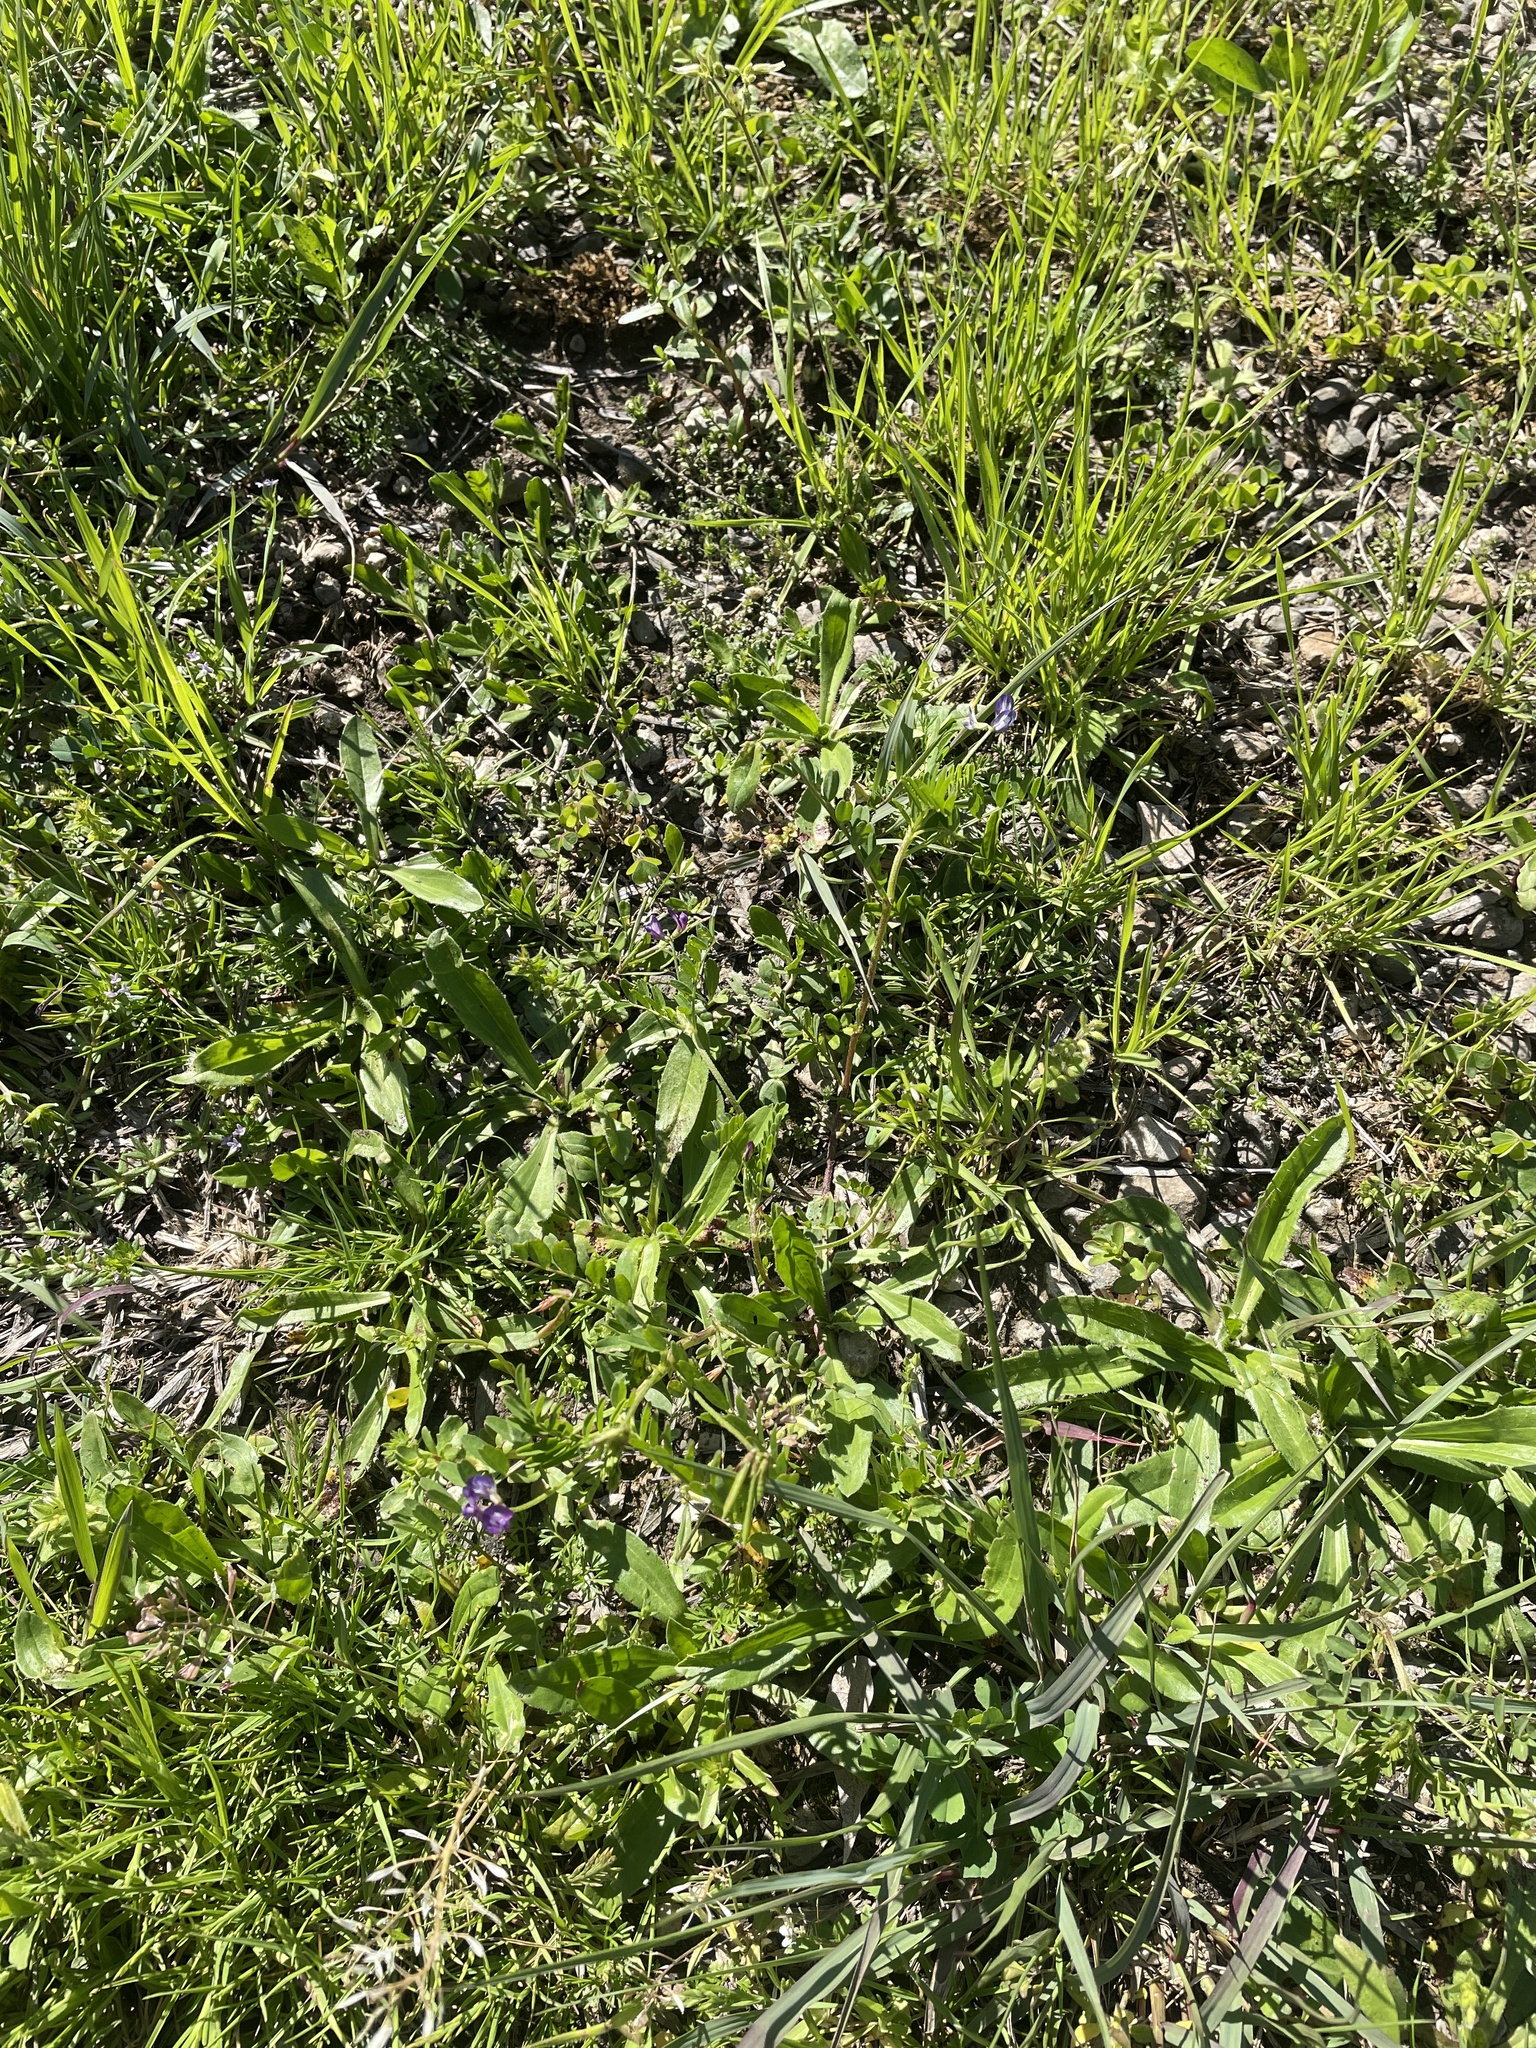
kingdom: Plantae
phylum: Tracheophyta
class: Magnoliopsida
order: Fabales
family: Fabaceae
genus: Astragalus
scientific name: Astragalus nuttallianus
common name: Smallflowered milkvetch
